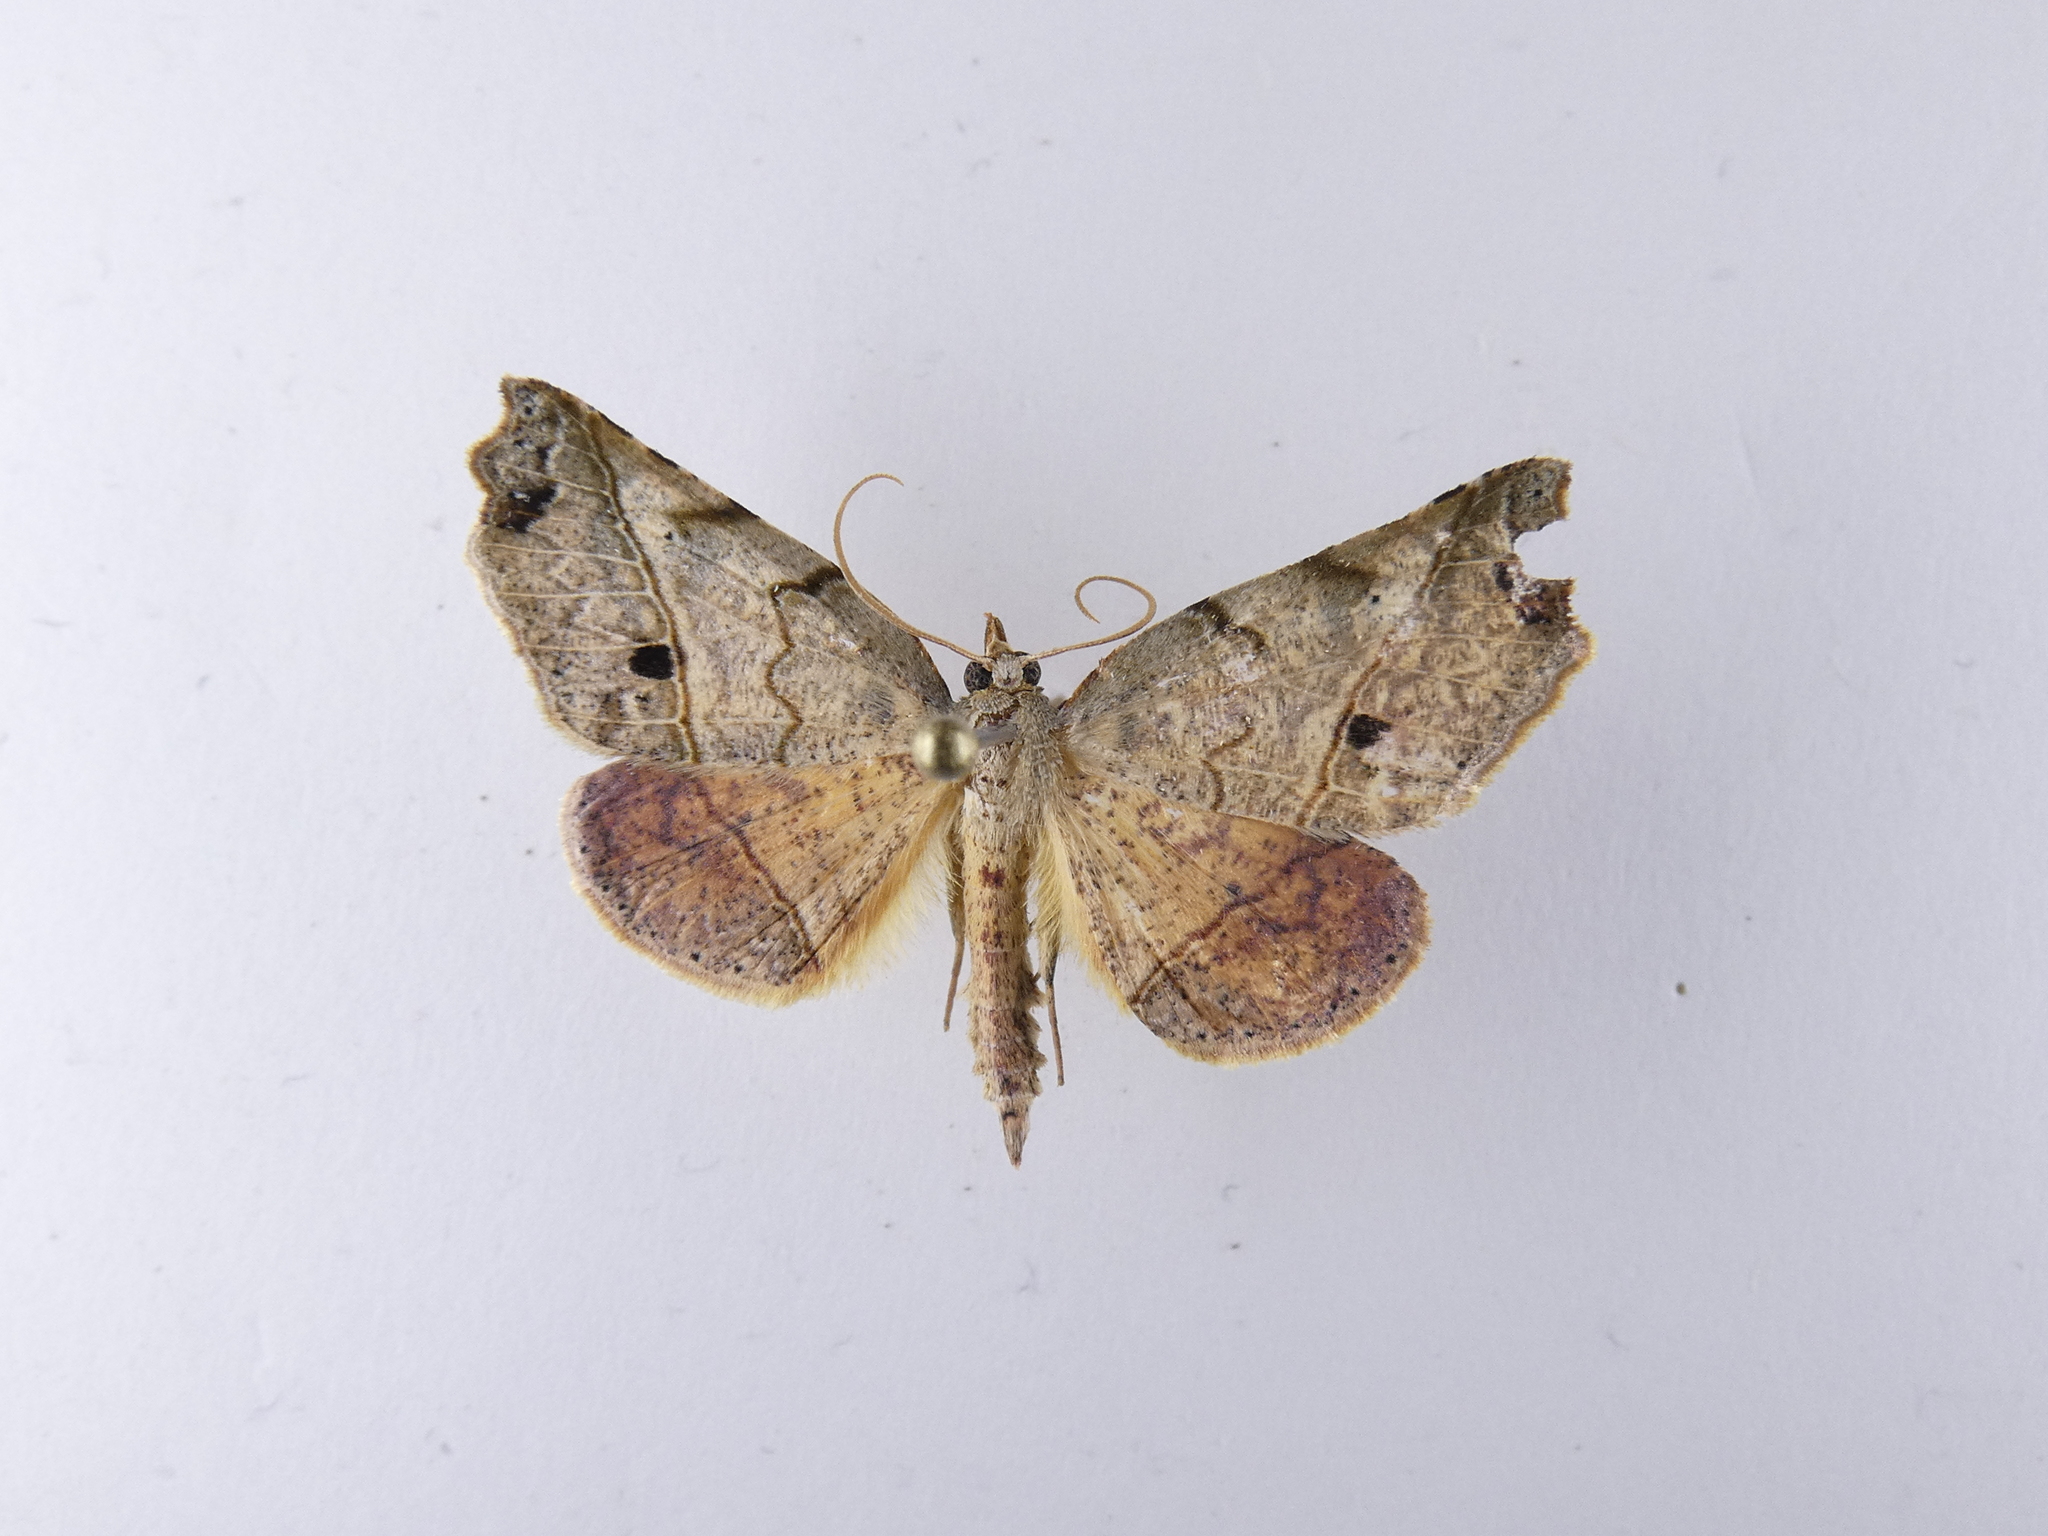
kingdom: Animalia
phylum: Arthropoda
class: Insecta
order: Lepidoptera
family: Geometridae
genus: Ischalis
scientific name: Ischalis gallaria
